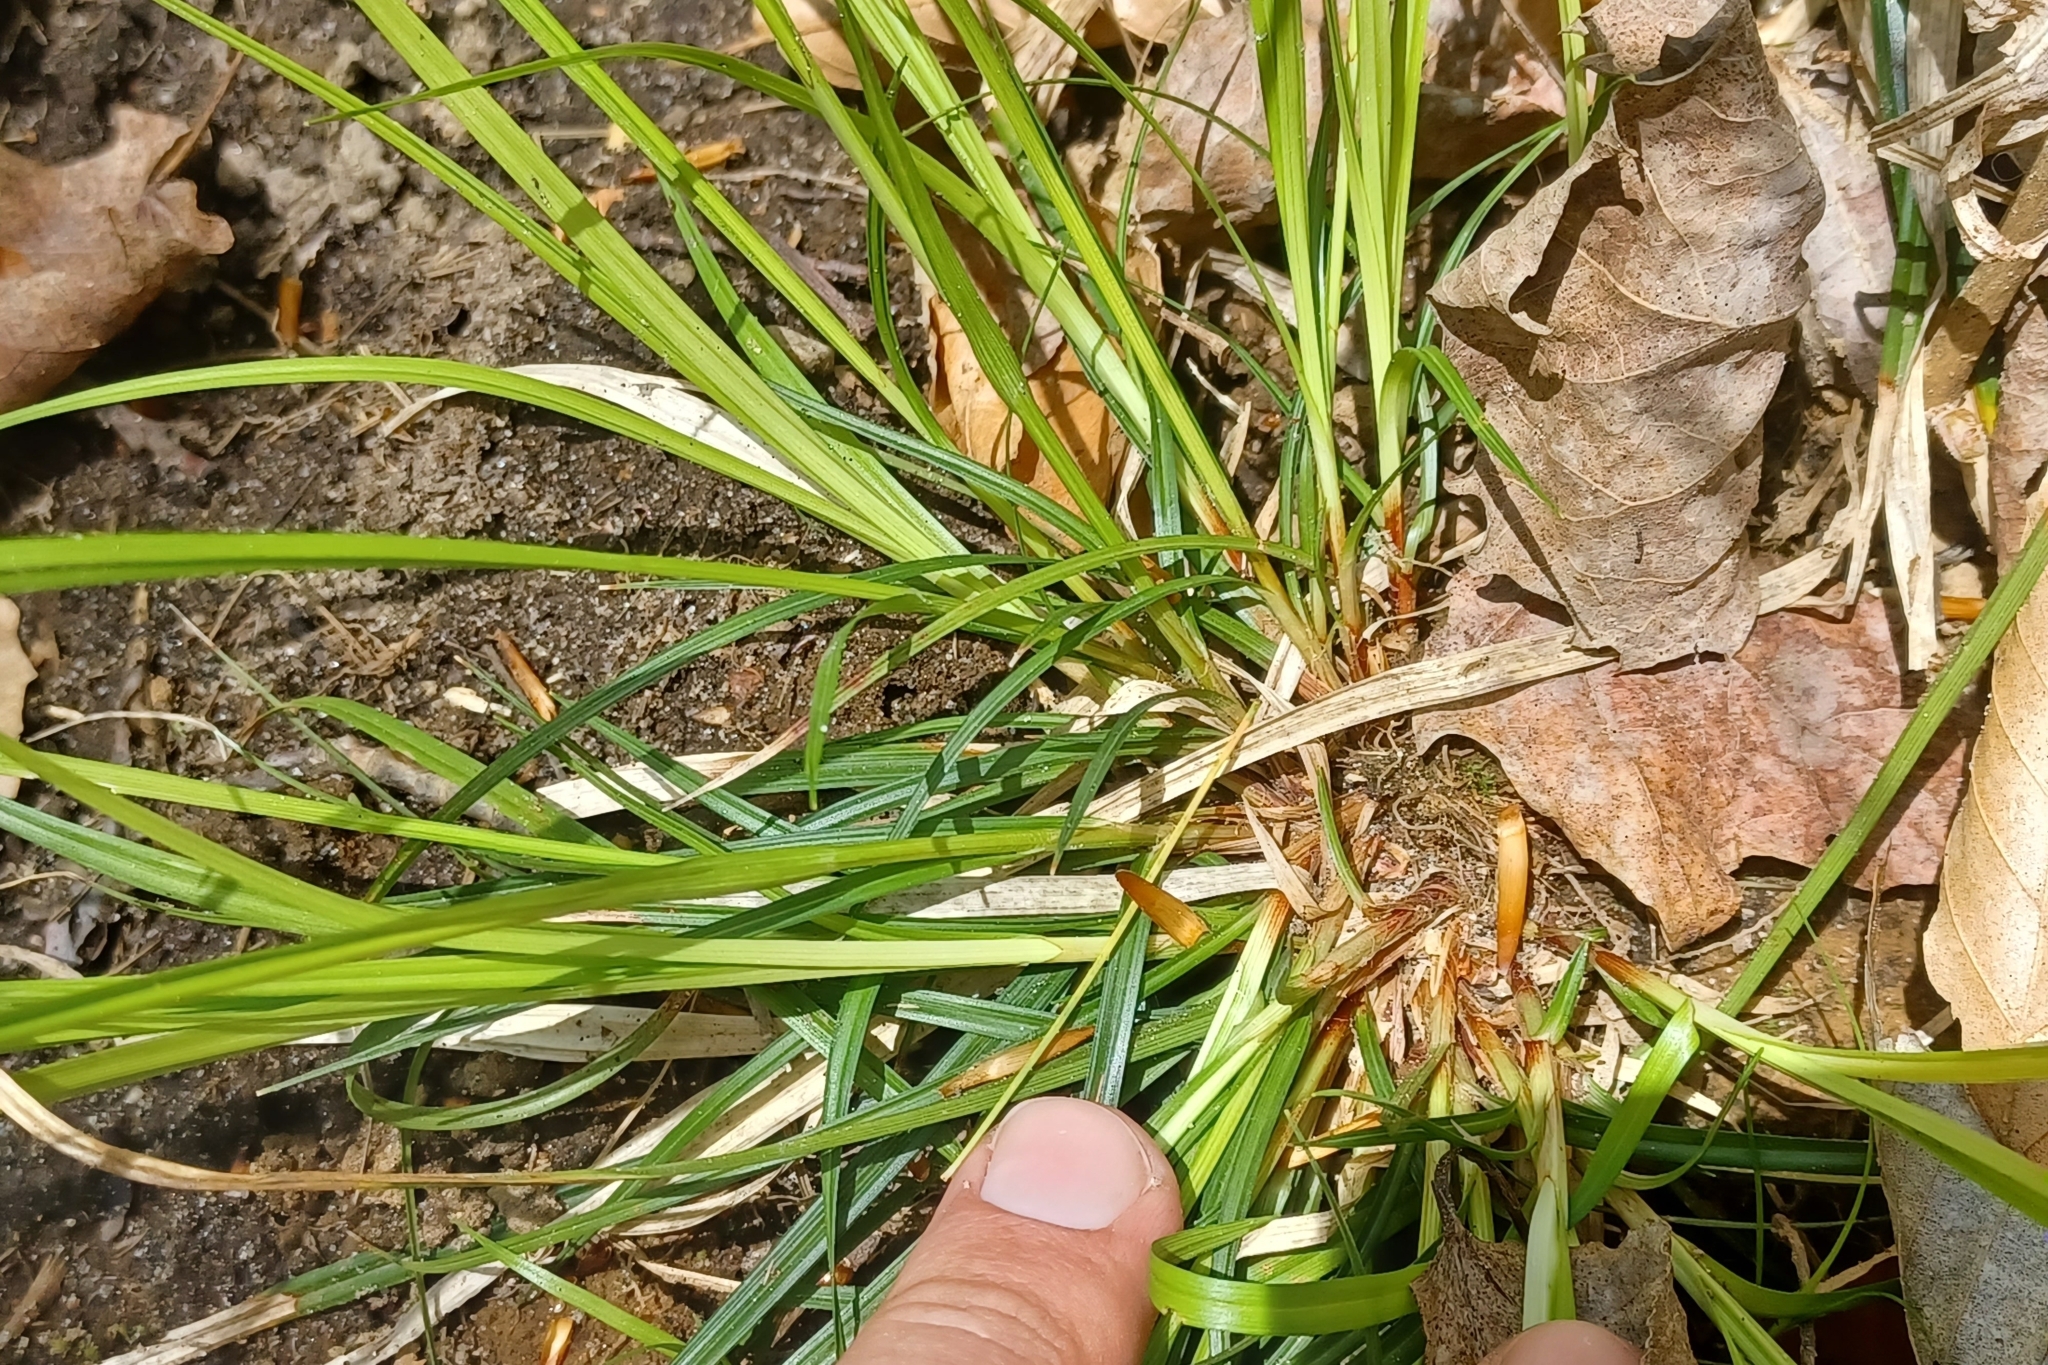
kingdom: Plantae
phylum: Tracheophyta
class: Liliopsida
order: Poales
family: Cyperaceae
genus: Carex
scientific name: Carex communis
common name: Colonial oak sedge
